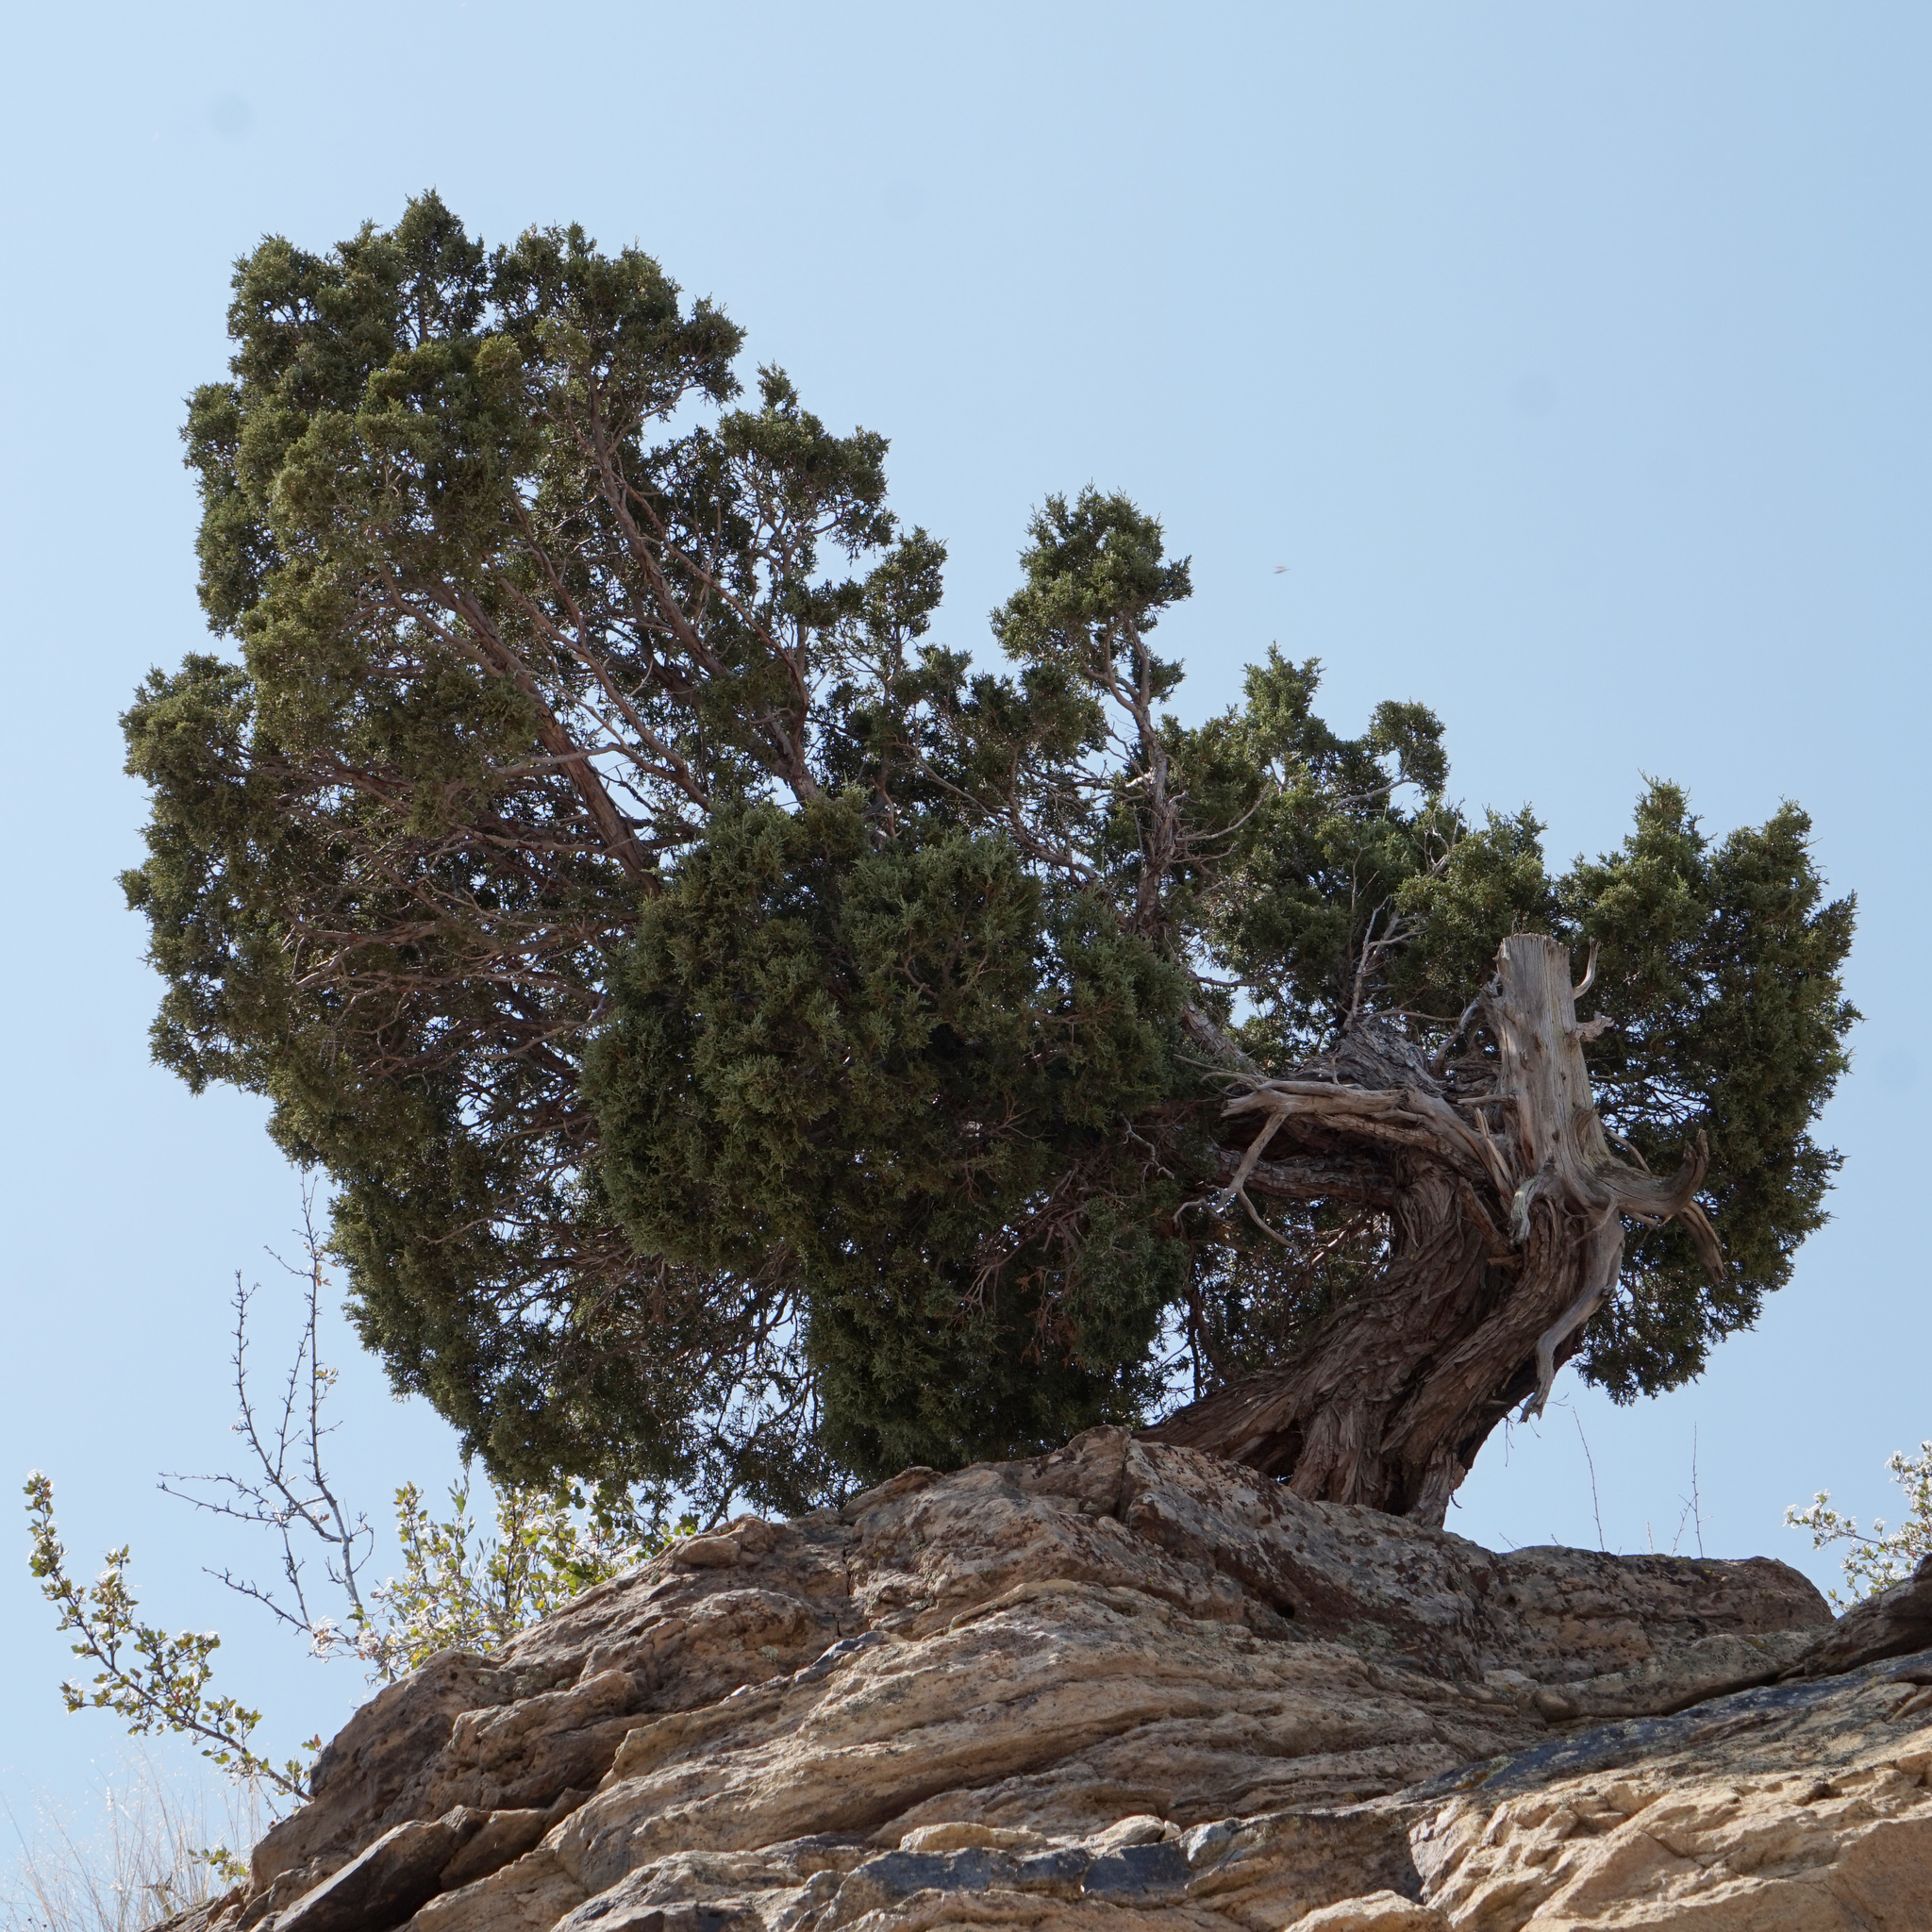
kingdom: Plantae
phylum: Tracheophyta
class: Pinopsida
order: Pinales
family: Cupressaceae
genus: Juniperus
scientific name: Juniperus scopulorum
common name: Rocky mountain juniper
